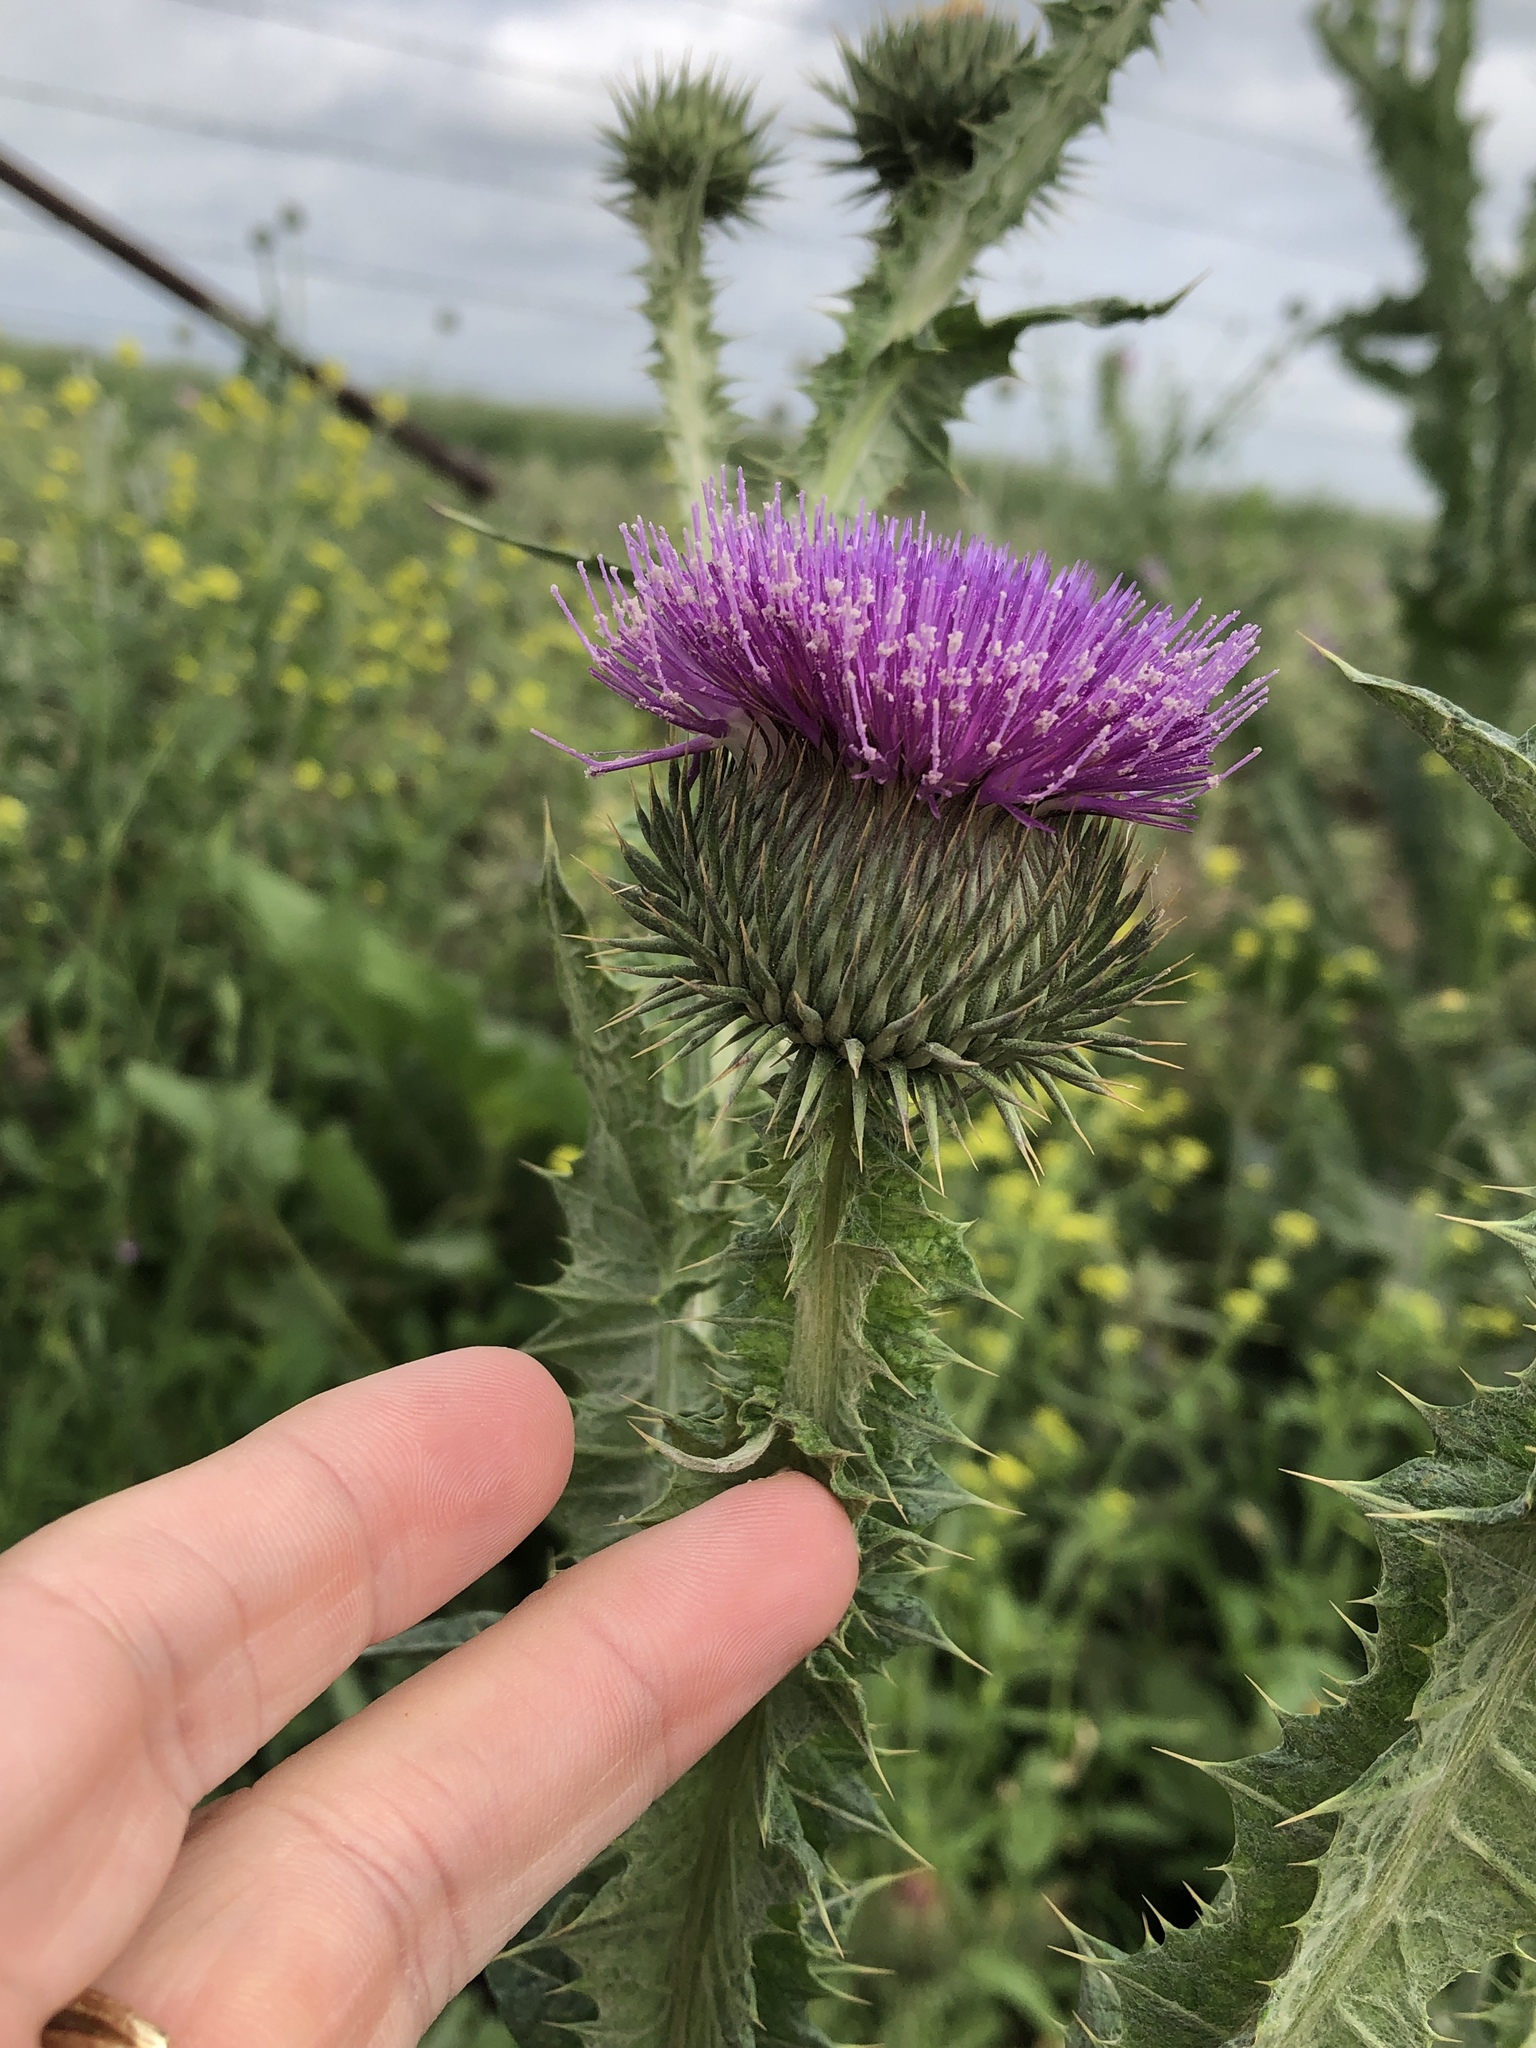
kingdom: Plantae
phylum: Tracheophyta
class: Magnoliopsida
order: Asterales
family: Asteraceae
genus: Onopordum
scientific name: Onopordum acanthium
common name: Scotch thistle
